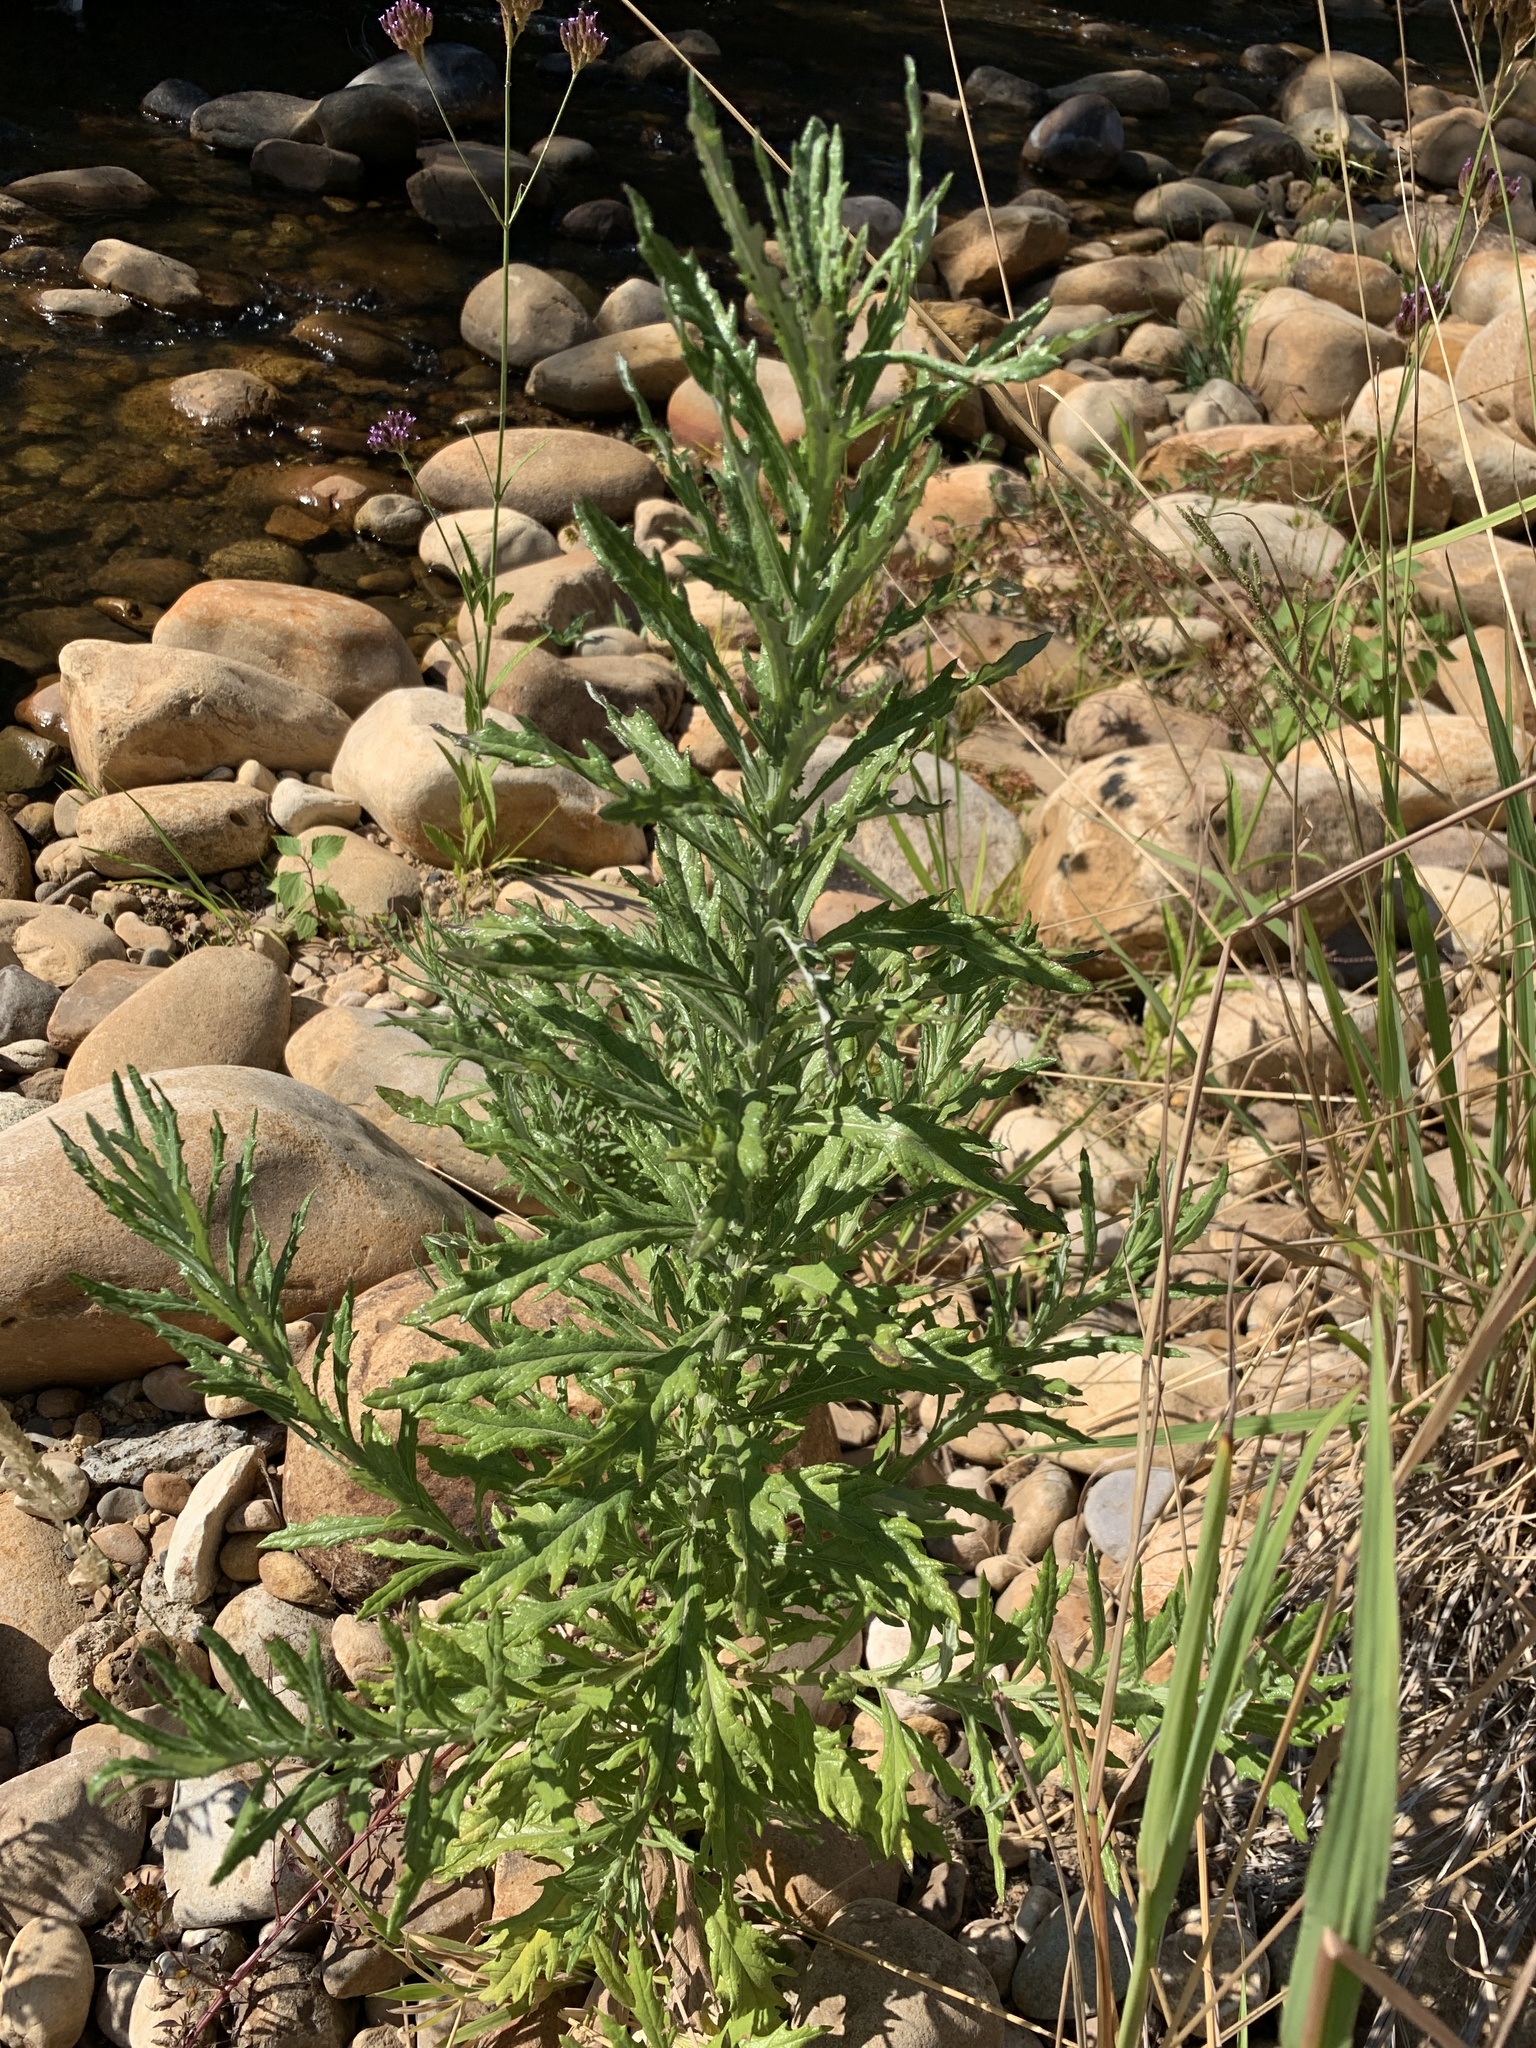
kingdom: Plantae
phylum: Tracheophyta
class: Magnoliopsida
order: Asterales
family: Asteraceae
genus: Senecio
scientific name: Senecio pterophorus
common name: Shoddy ragwort
